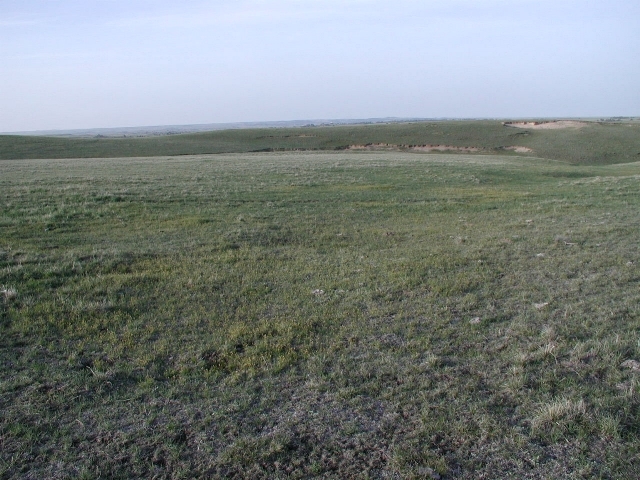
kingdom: Plantae
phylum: Tracheophyta
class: Liliopsida
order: Poales
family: Cyperaceae
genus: Carex
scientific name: Carex filifolia
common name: Threadleaf sedge
